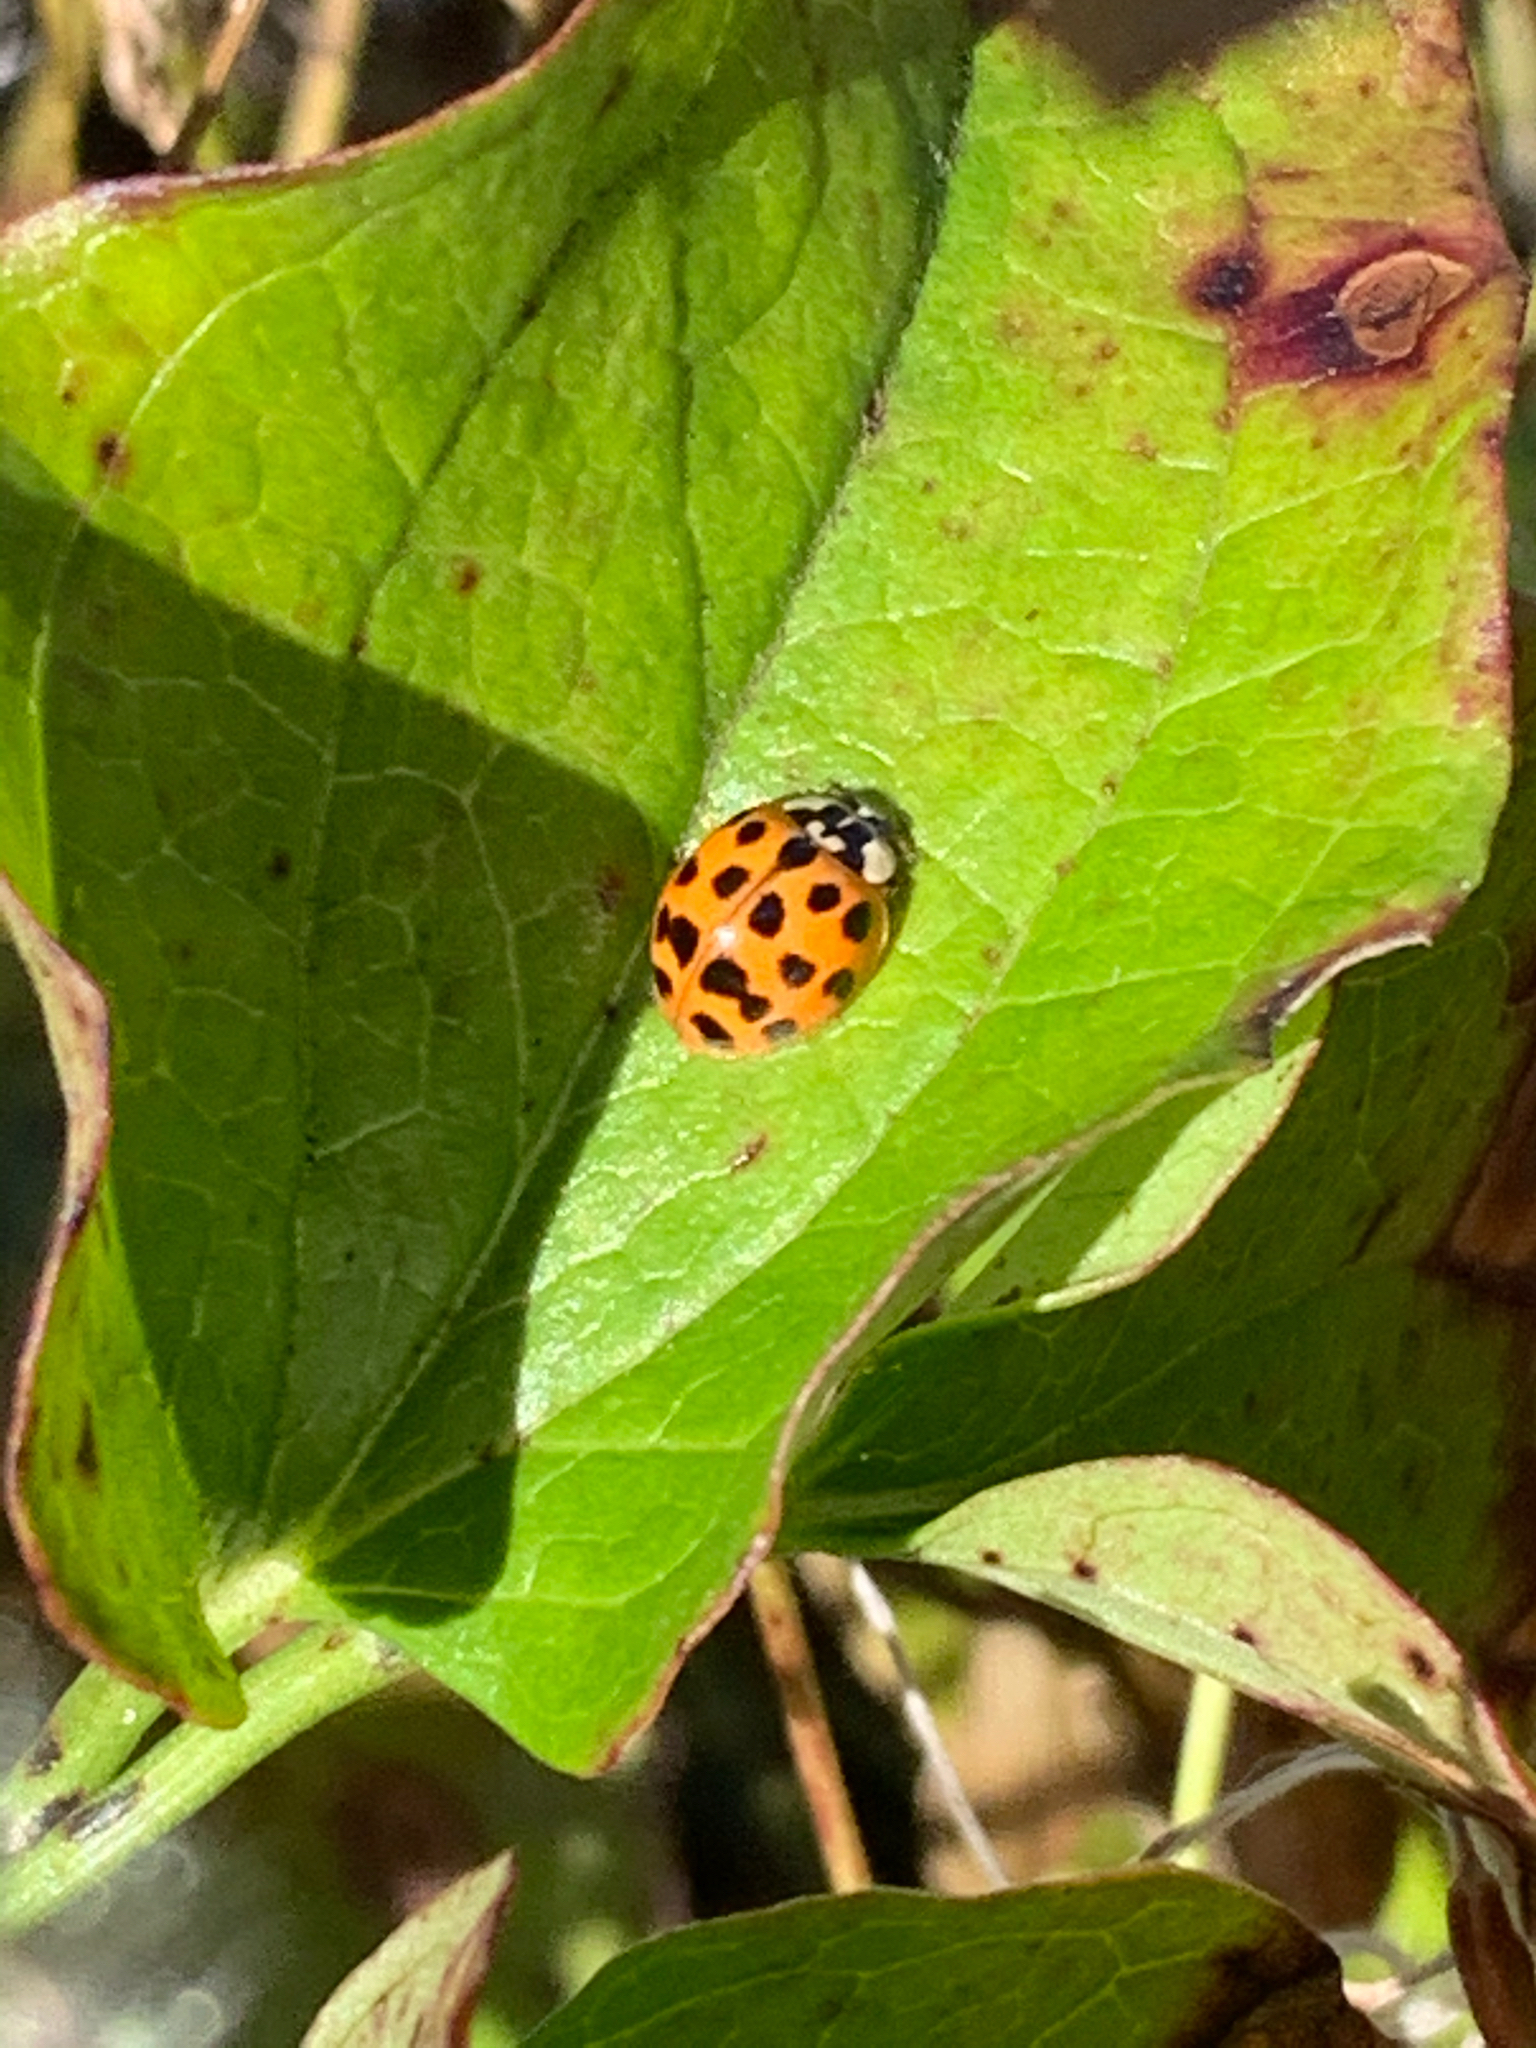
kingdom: Animalia
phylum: Arthropoda
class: Insecta
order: Coleoptera
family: Coccinellidae
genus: Harmonia
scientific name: Harmonia axyridis
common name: Harlequin ladybird
